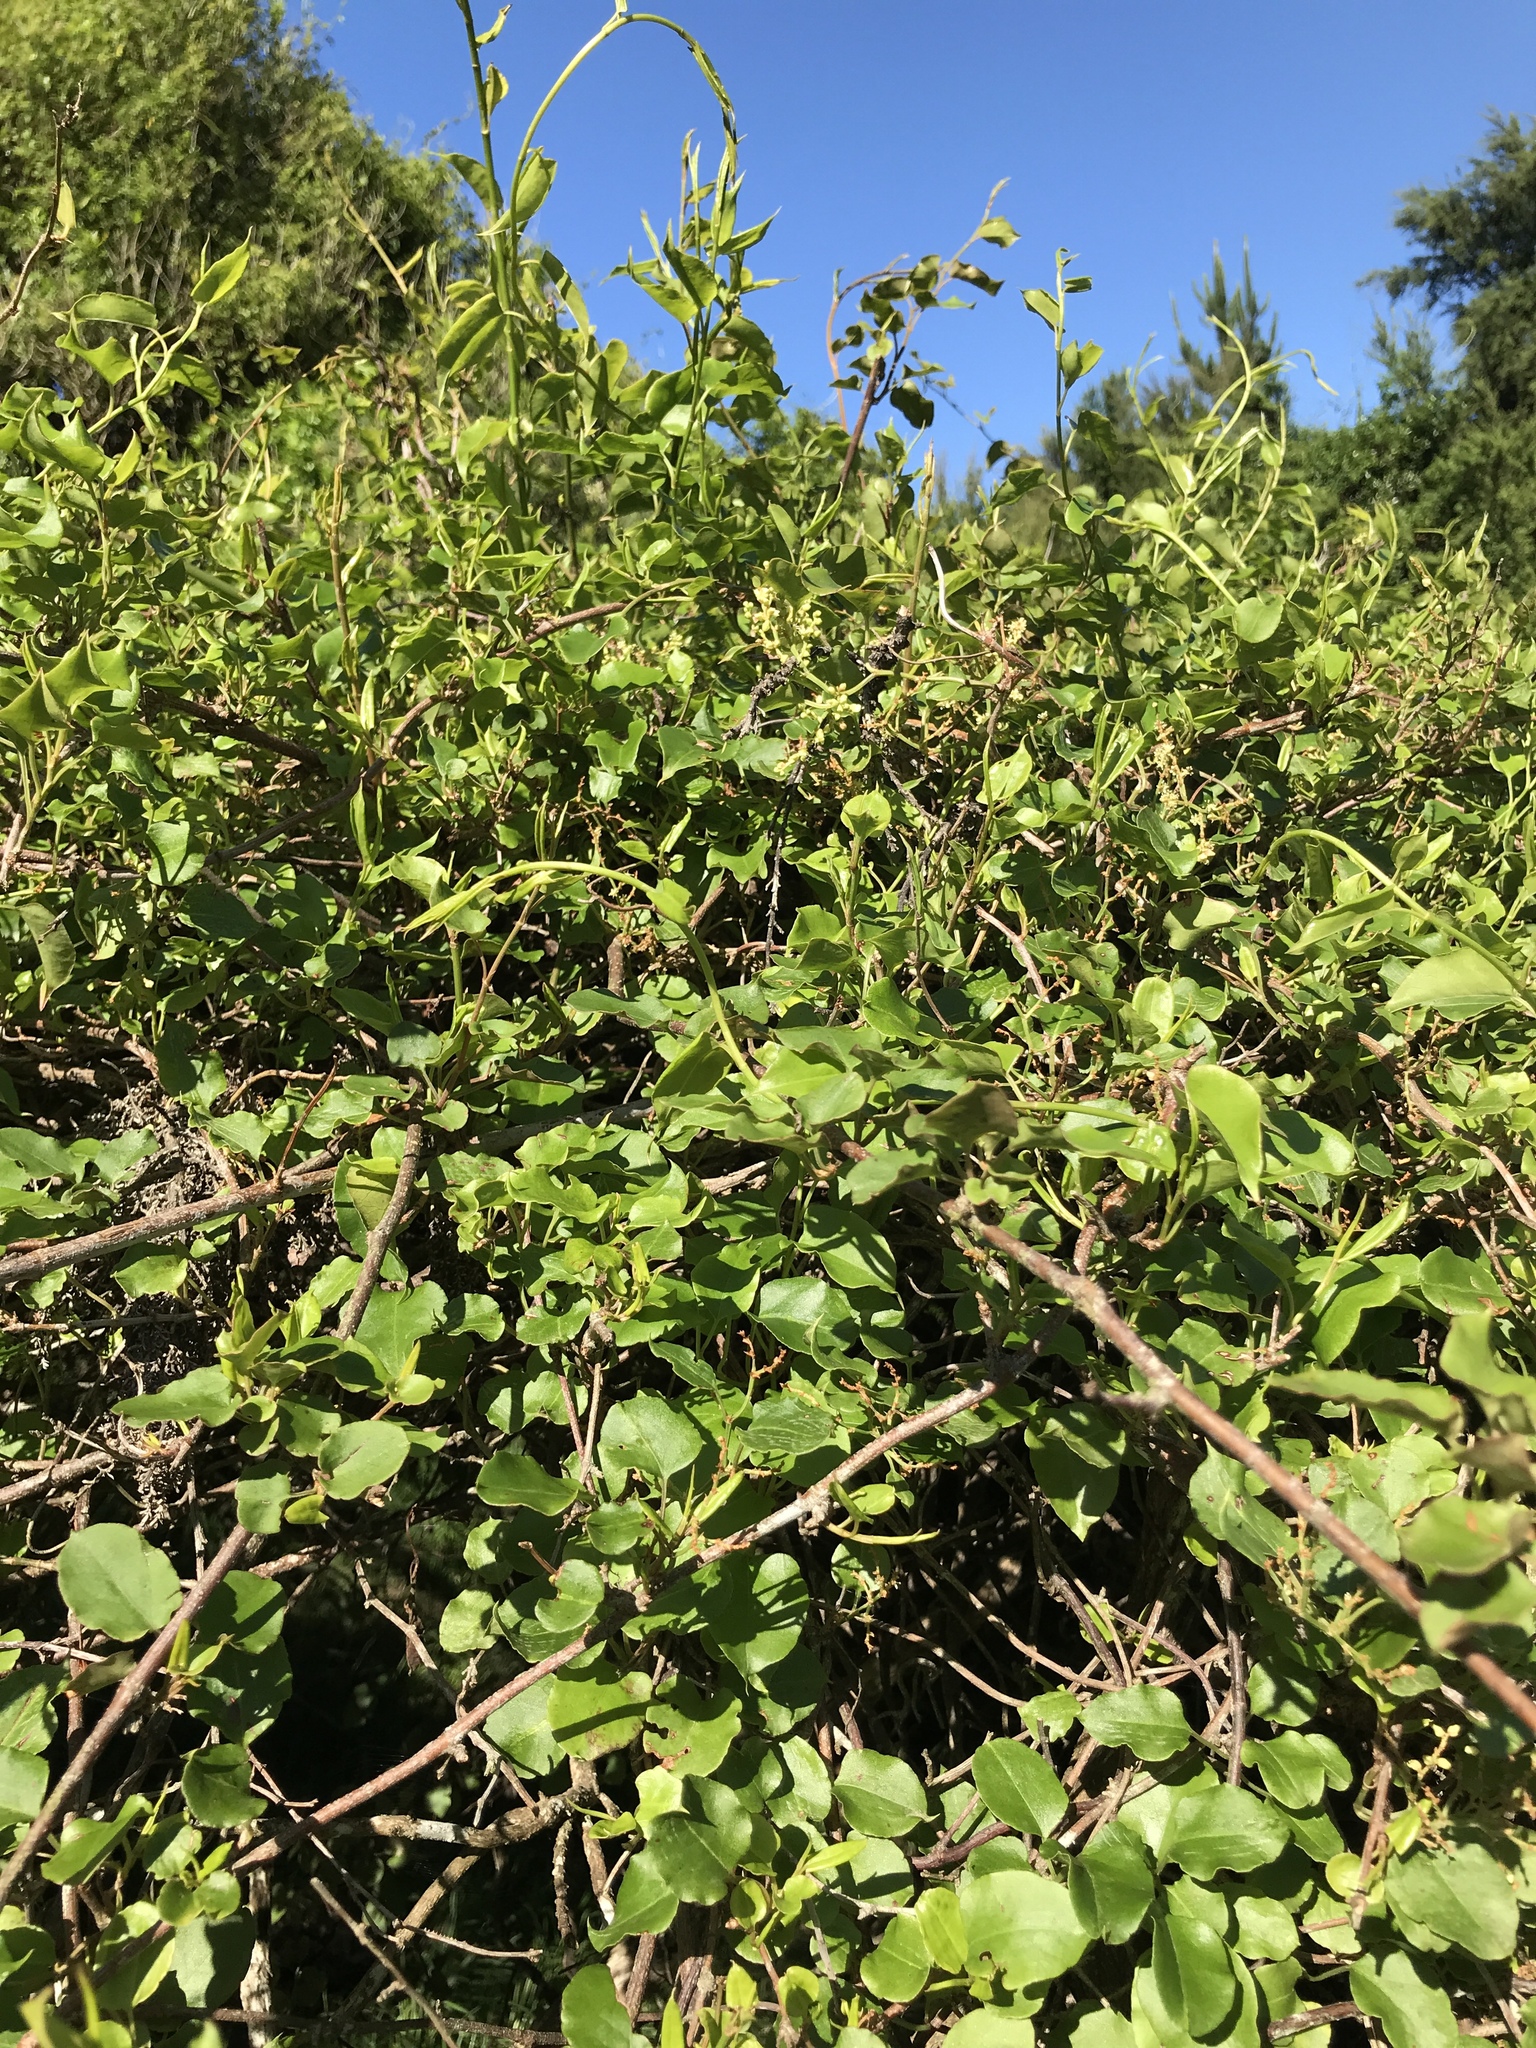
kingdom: Plantae
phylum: Tracheophyta
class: Magnoliopsida
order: Caryophyllales
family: Polygonaceae
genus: Muehlenbeckia
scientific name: Muehlenbeckia australis
